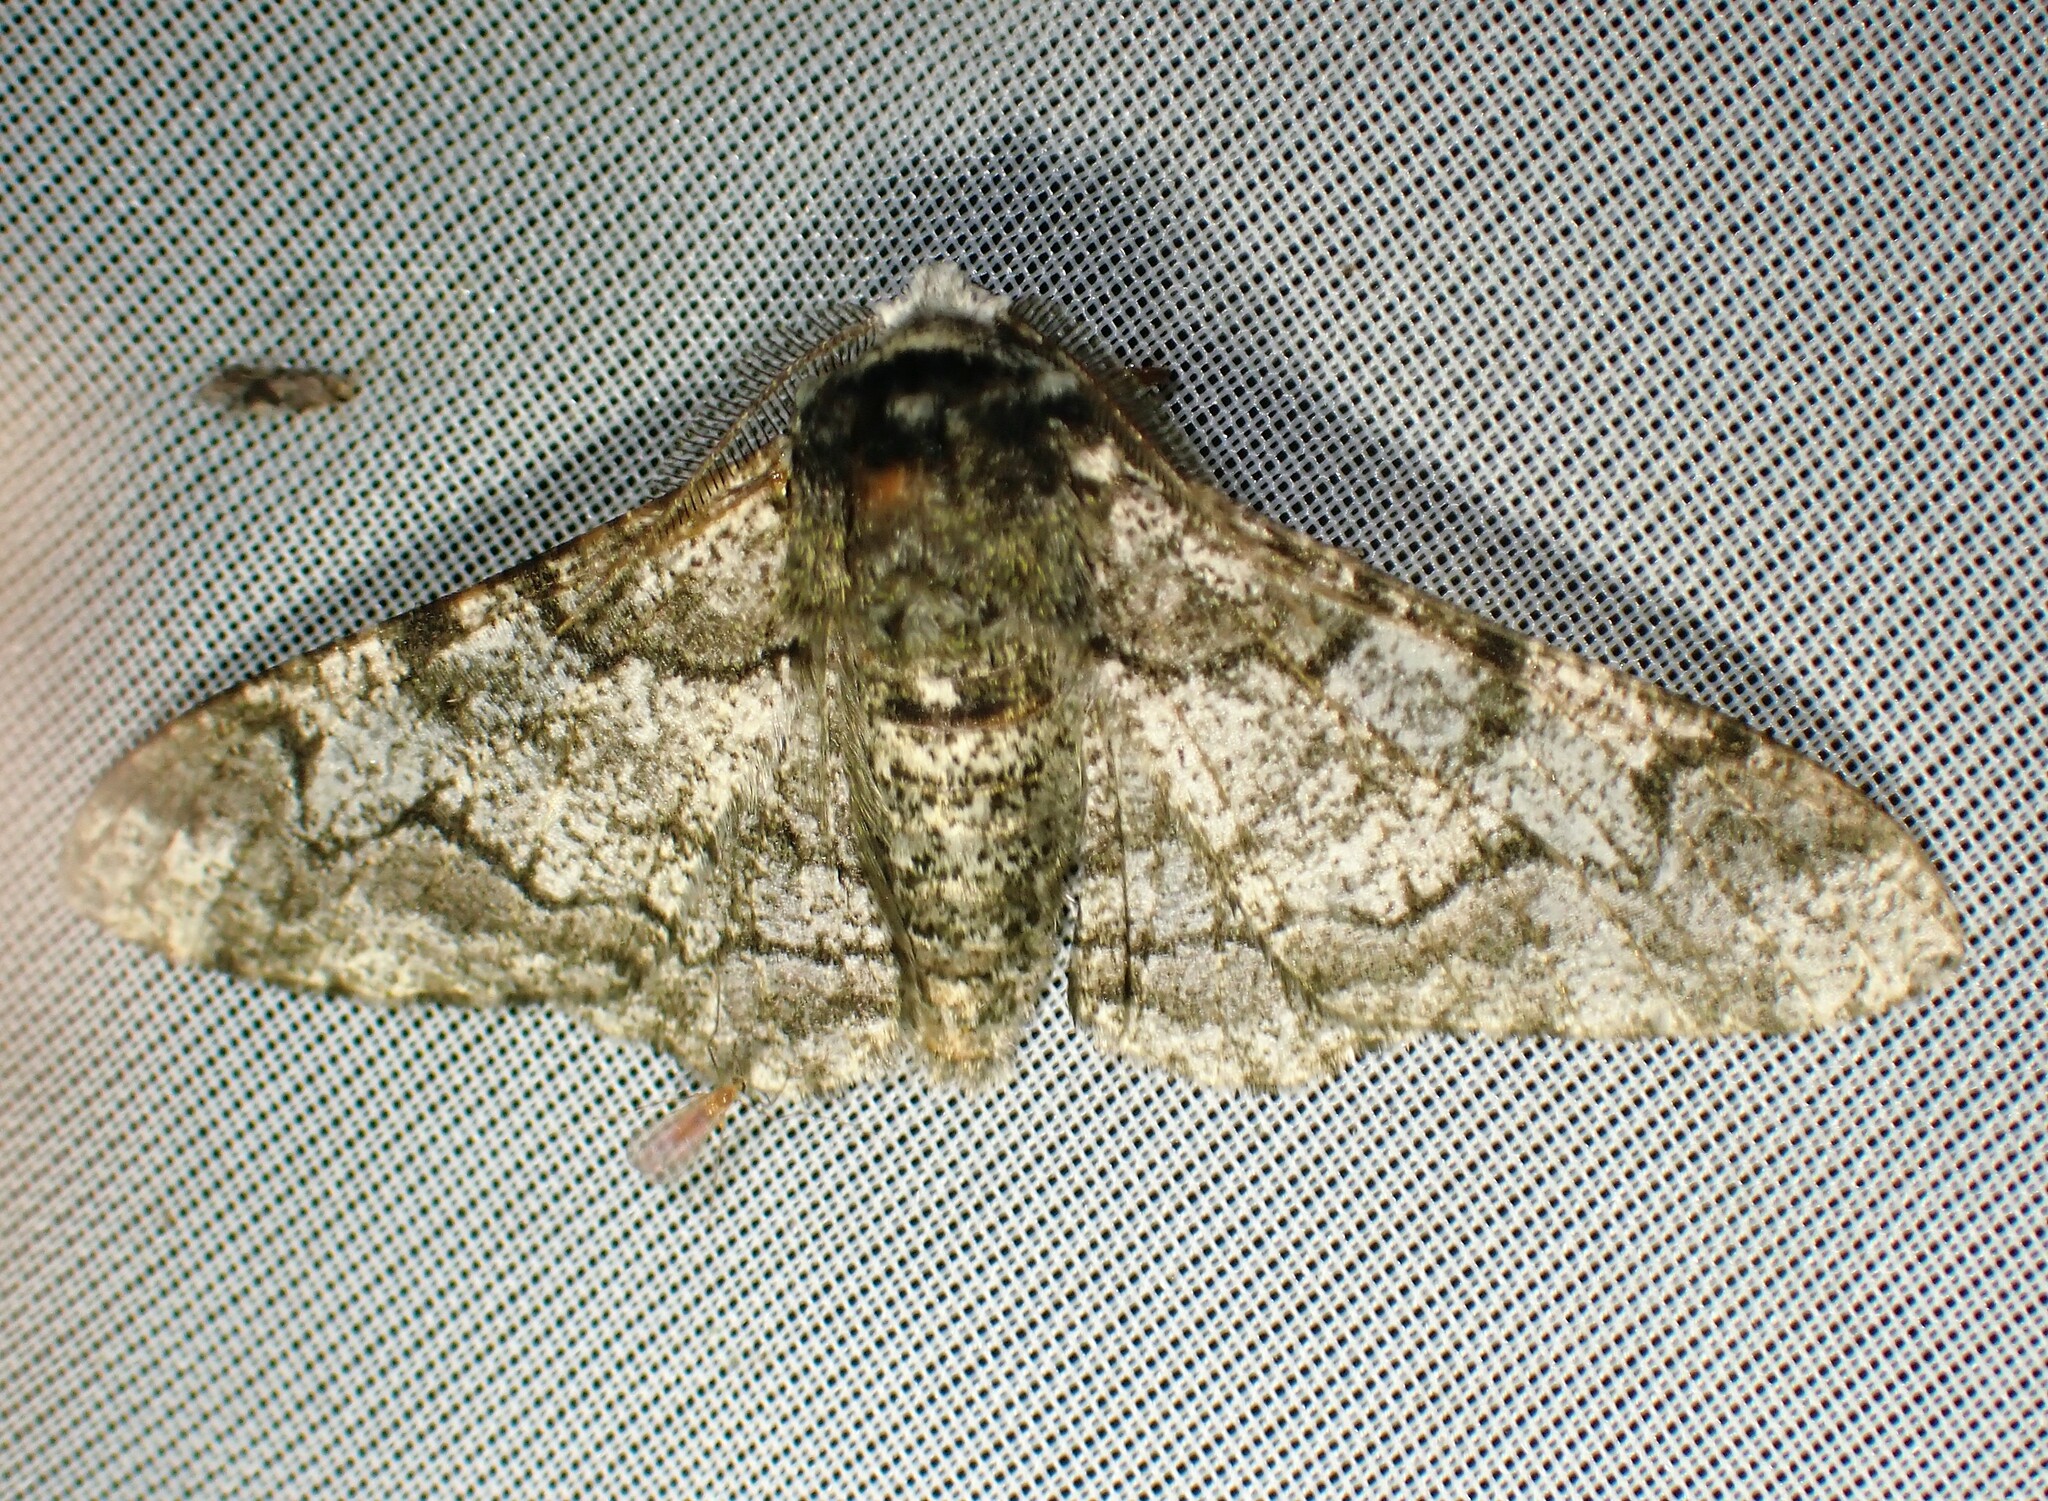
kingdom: Animalia
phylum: Arthropoda
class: Insecta
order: Lepidoptera
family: Geometridae
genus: Biston
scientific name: Biston betularia
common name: Peppered moth
